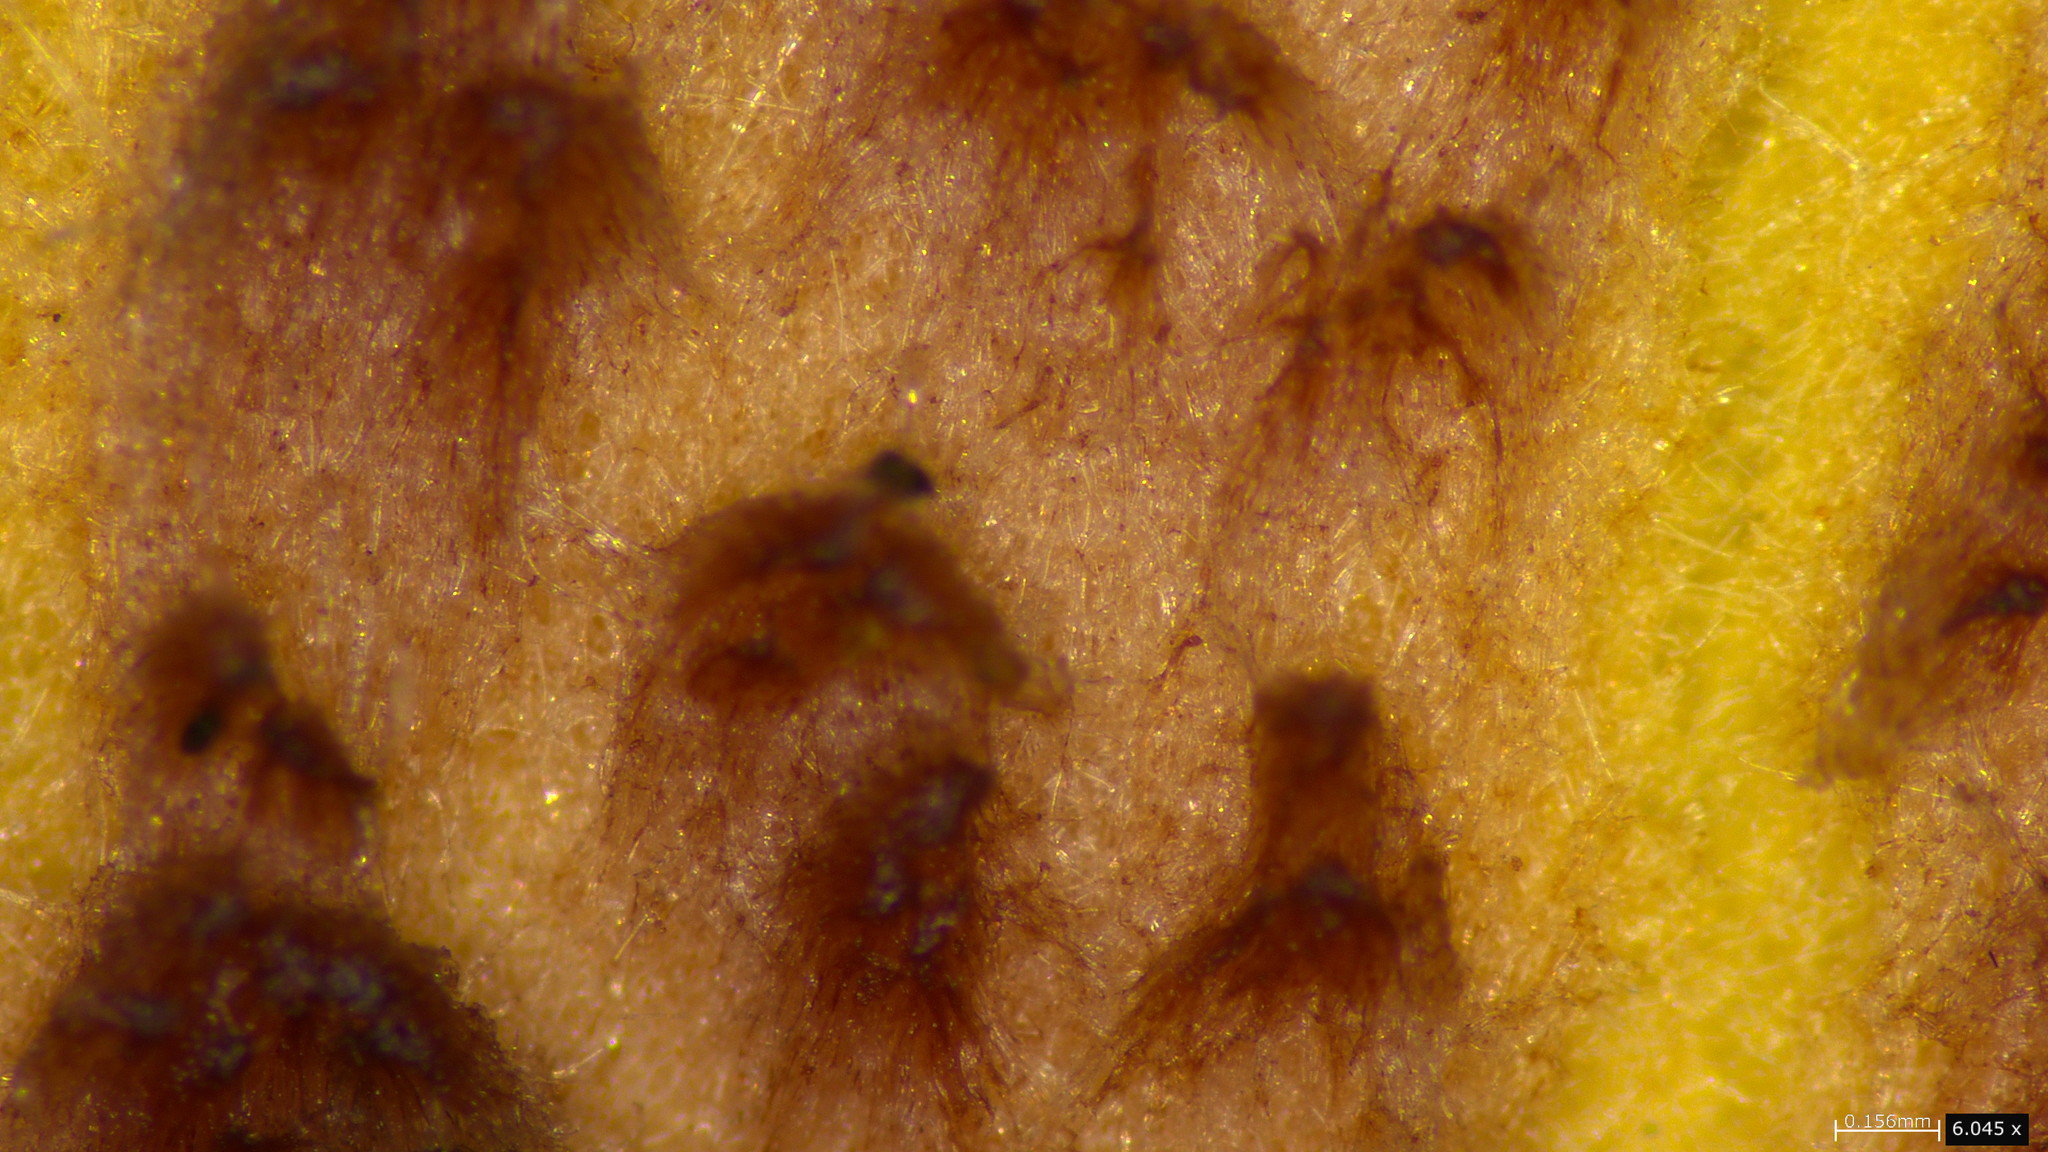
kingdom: Fungi
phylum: Basidiomycota
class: Agaricomycetes
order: Agaricales
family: Hymenogastraceae
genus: Gymnopilus
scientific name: Gymnopilus luteofolius
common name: Yellow-gilled gymnopilus
